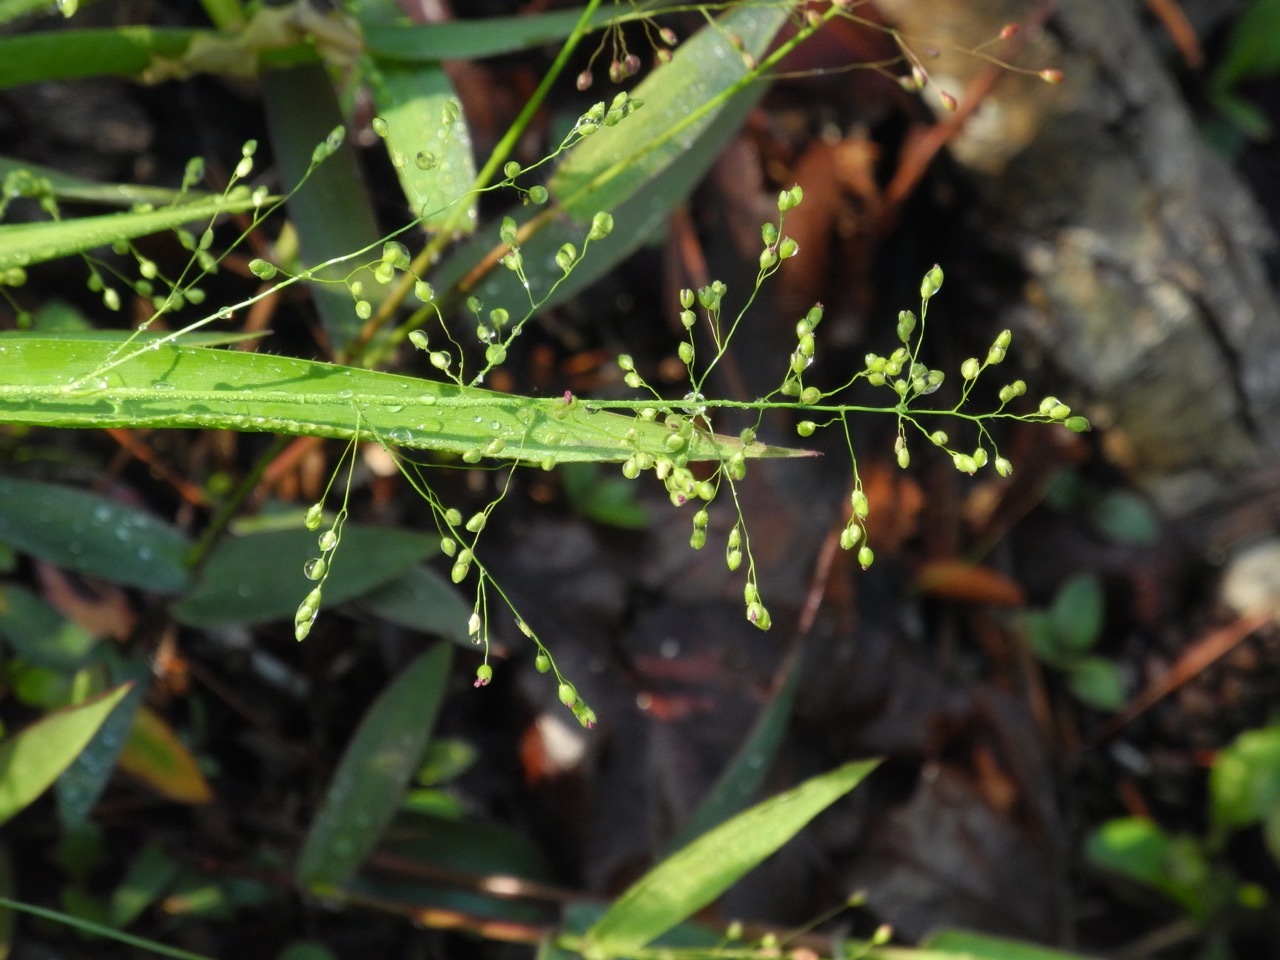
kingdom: Plantae
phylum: Tracheophyta
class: Liliopsida
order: Poales
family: Poaceae
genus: Dichanthelium
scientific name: Dichanthelium laxiflorum
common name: Soft-tuft panic grass
